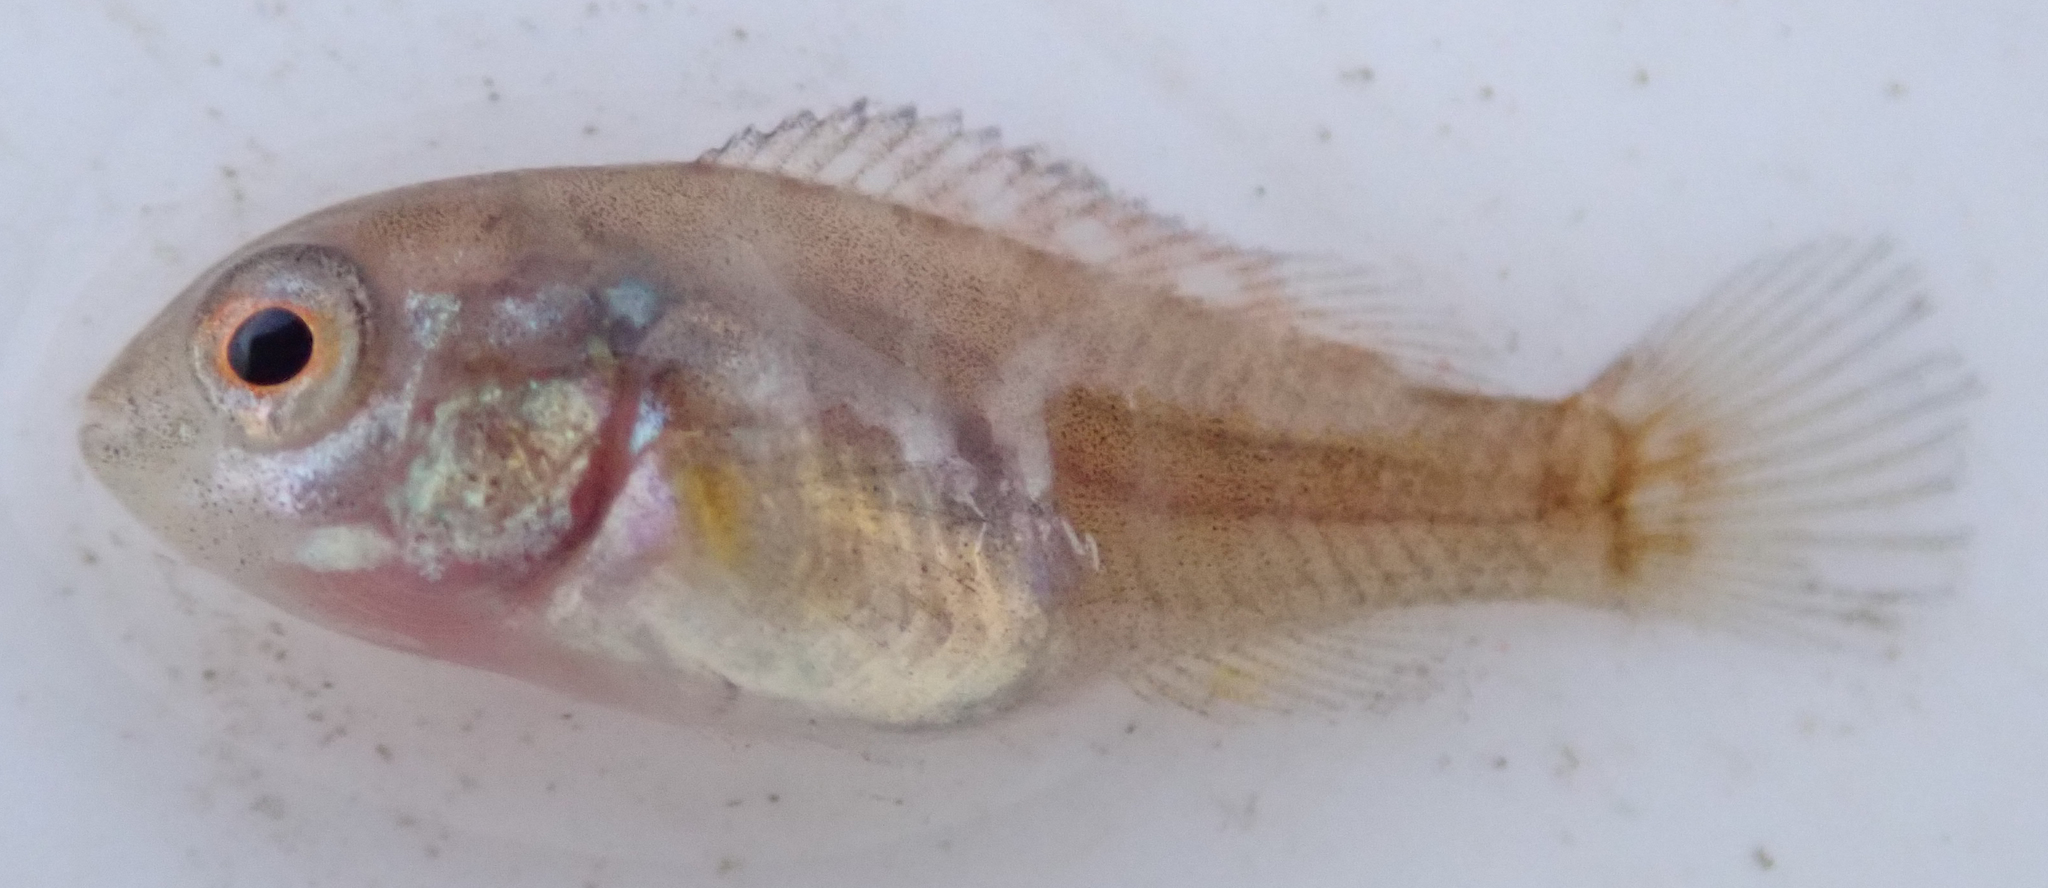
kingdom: Animalia
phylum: Chordata
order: Perciformes
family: Cichlidae
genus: Pseudocrenilabrus
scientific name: Pseudocrenilabrus philander
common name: Southern mouthbrooder
